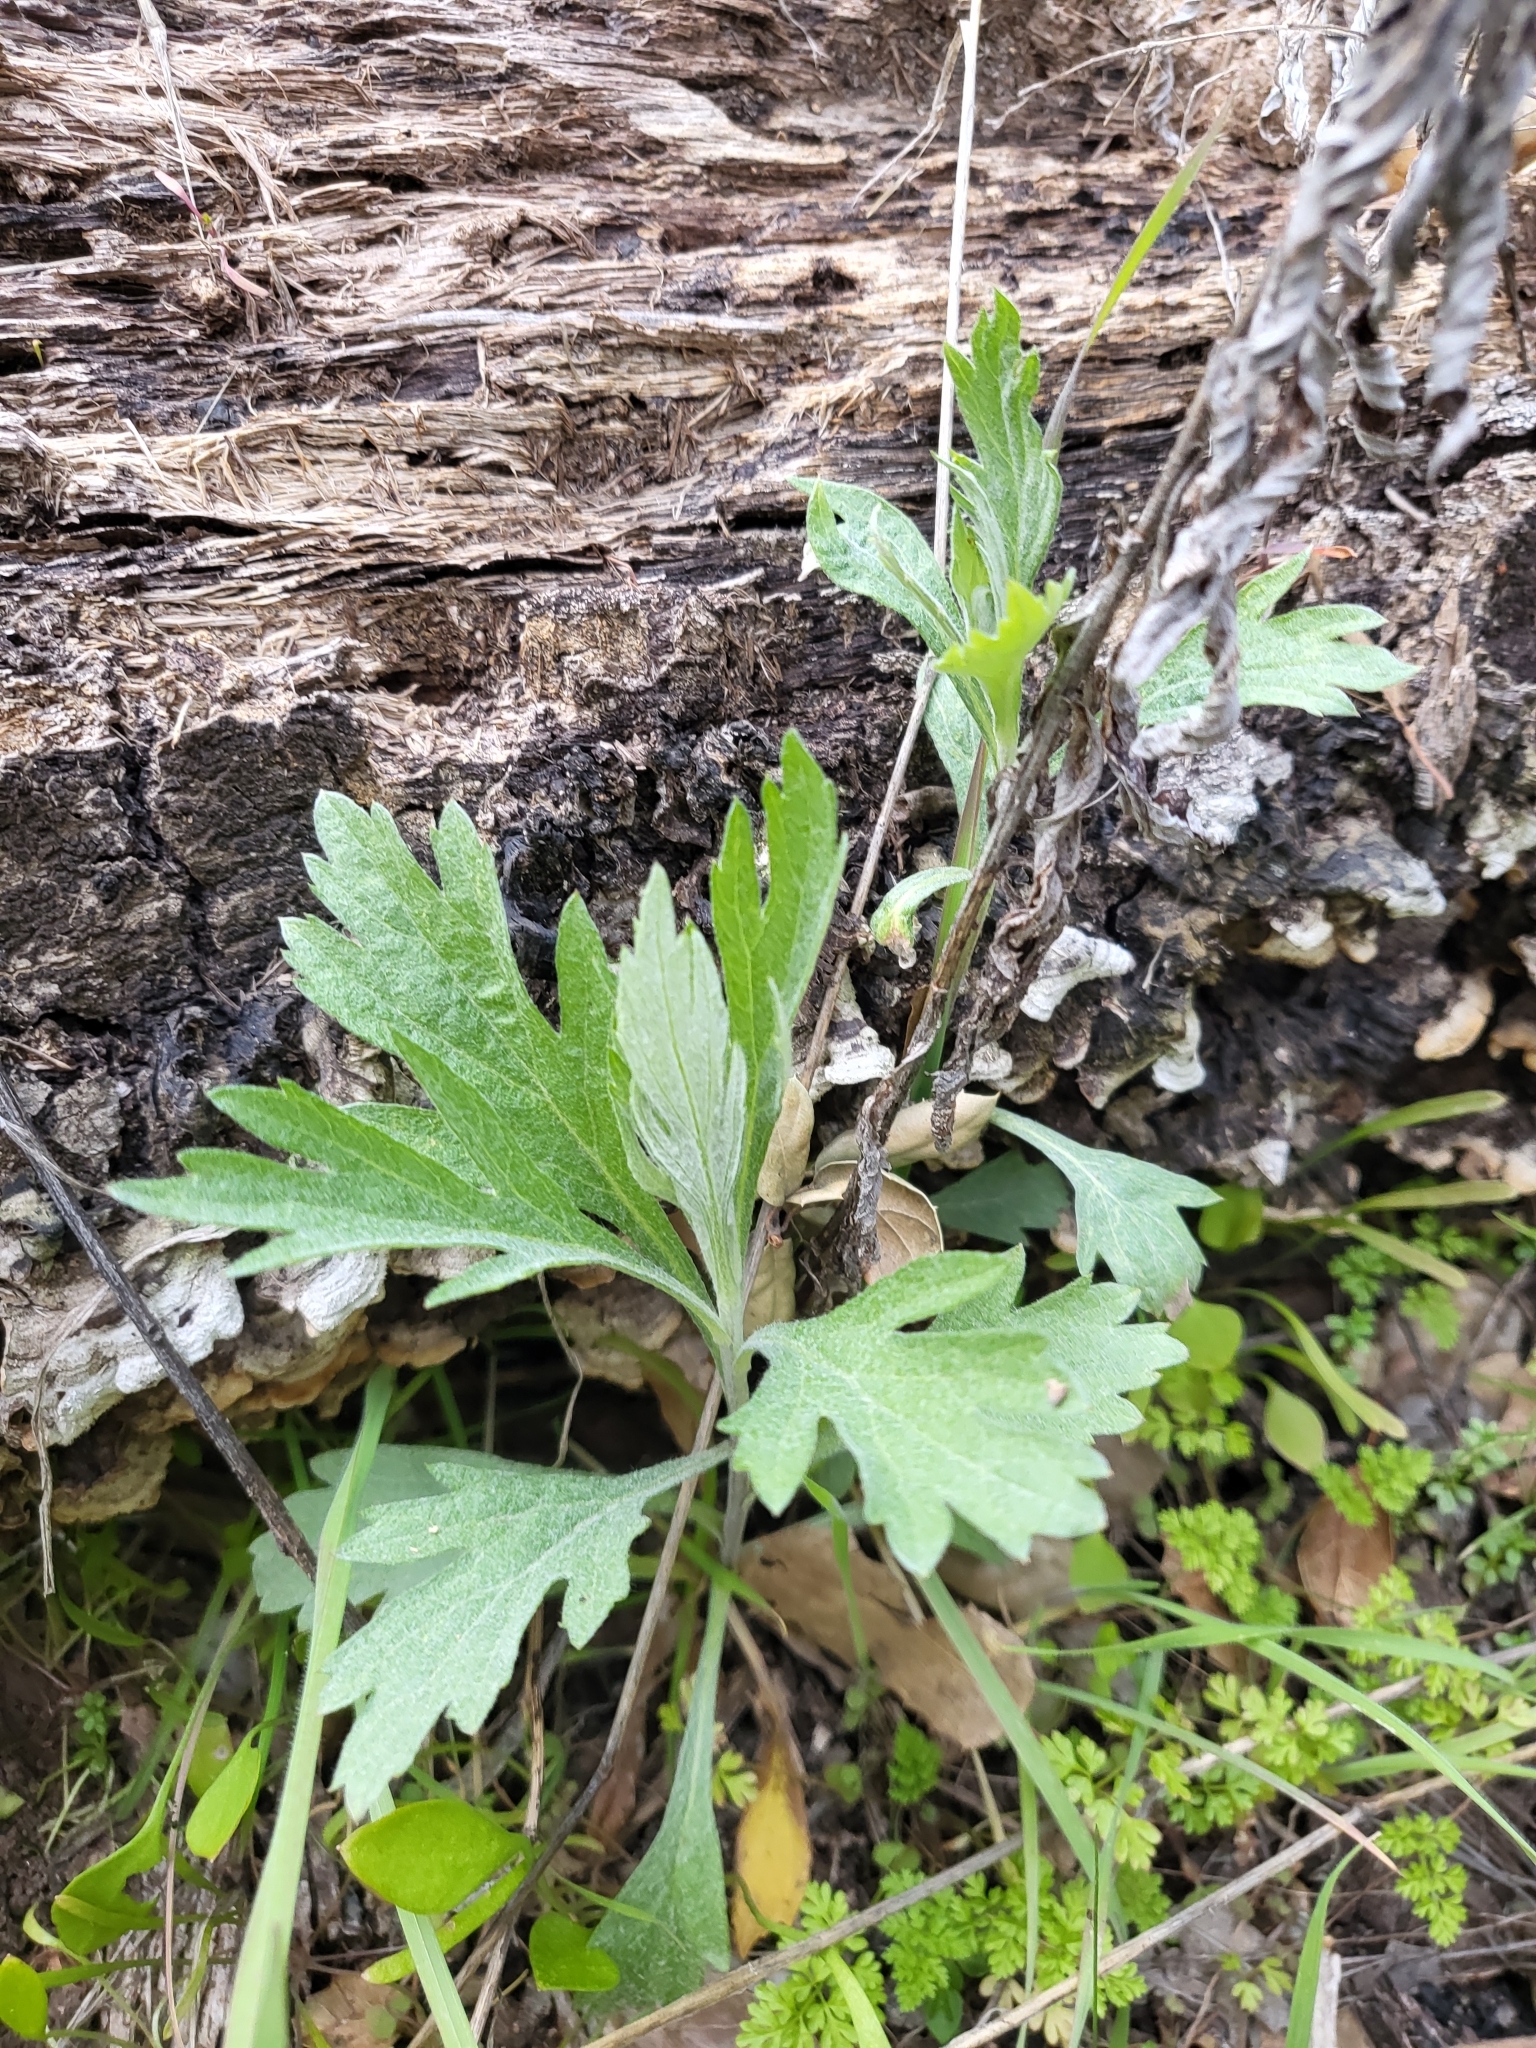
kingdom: Plantae
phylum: Tracheophyta
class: Magnoliopsida
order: Asterales
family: Asteraceae
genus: Artemisia
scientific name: Artemisia douglasiana
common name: Northwest mugwort
